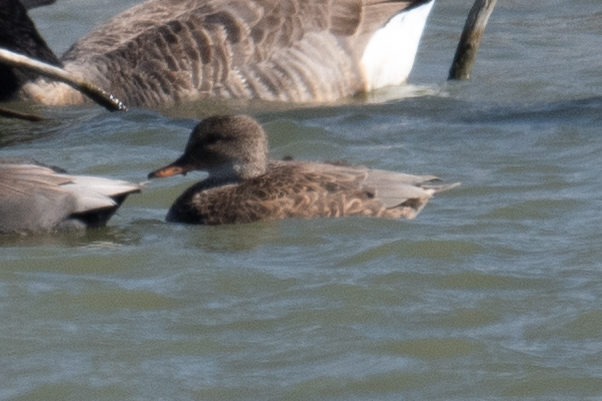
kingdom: Animalia
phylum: Chordata
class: Aves
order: Anseriformes
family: Anatidae
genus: Mareca
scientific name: Mareca strepera
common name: Gadwall
